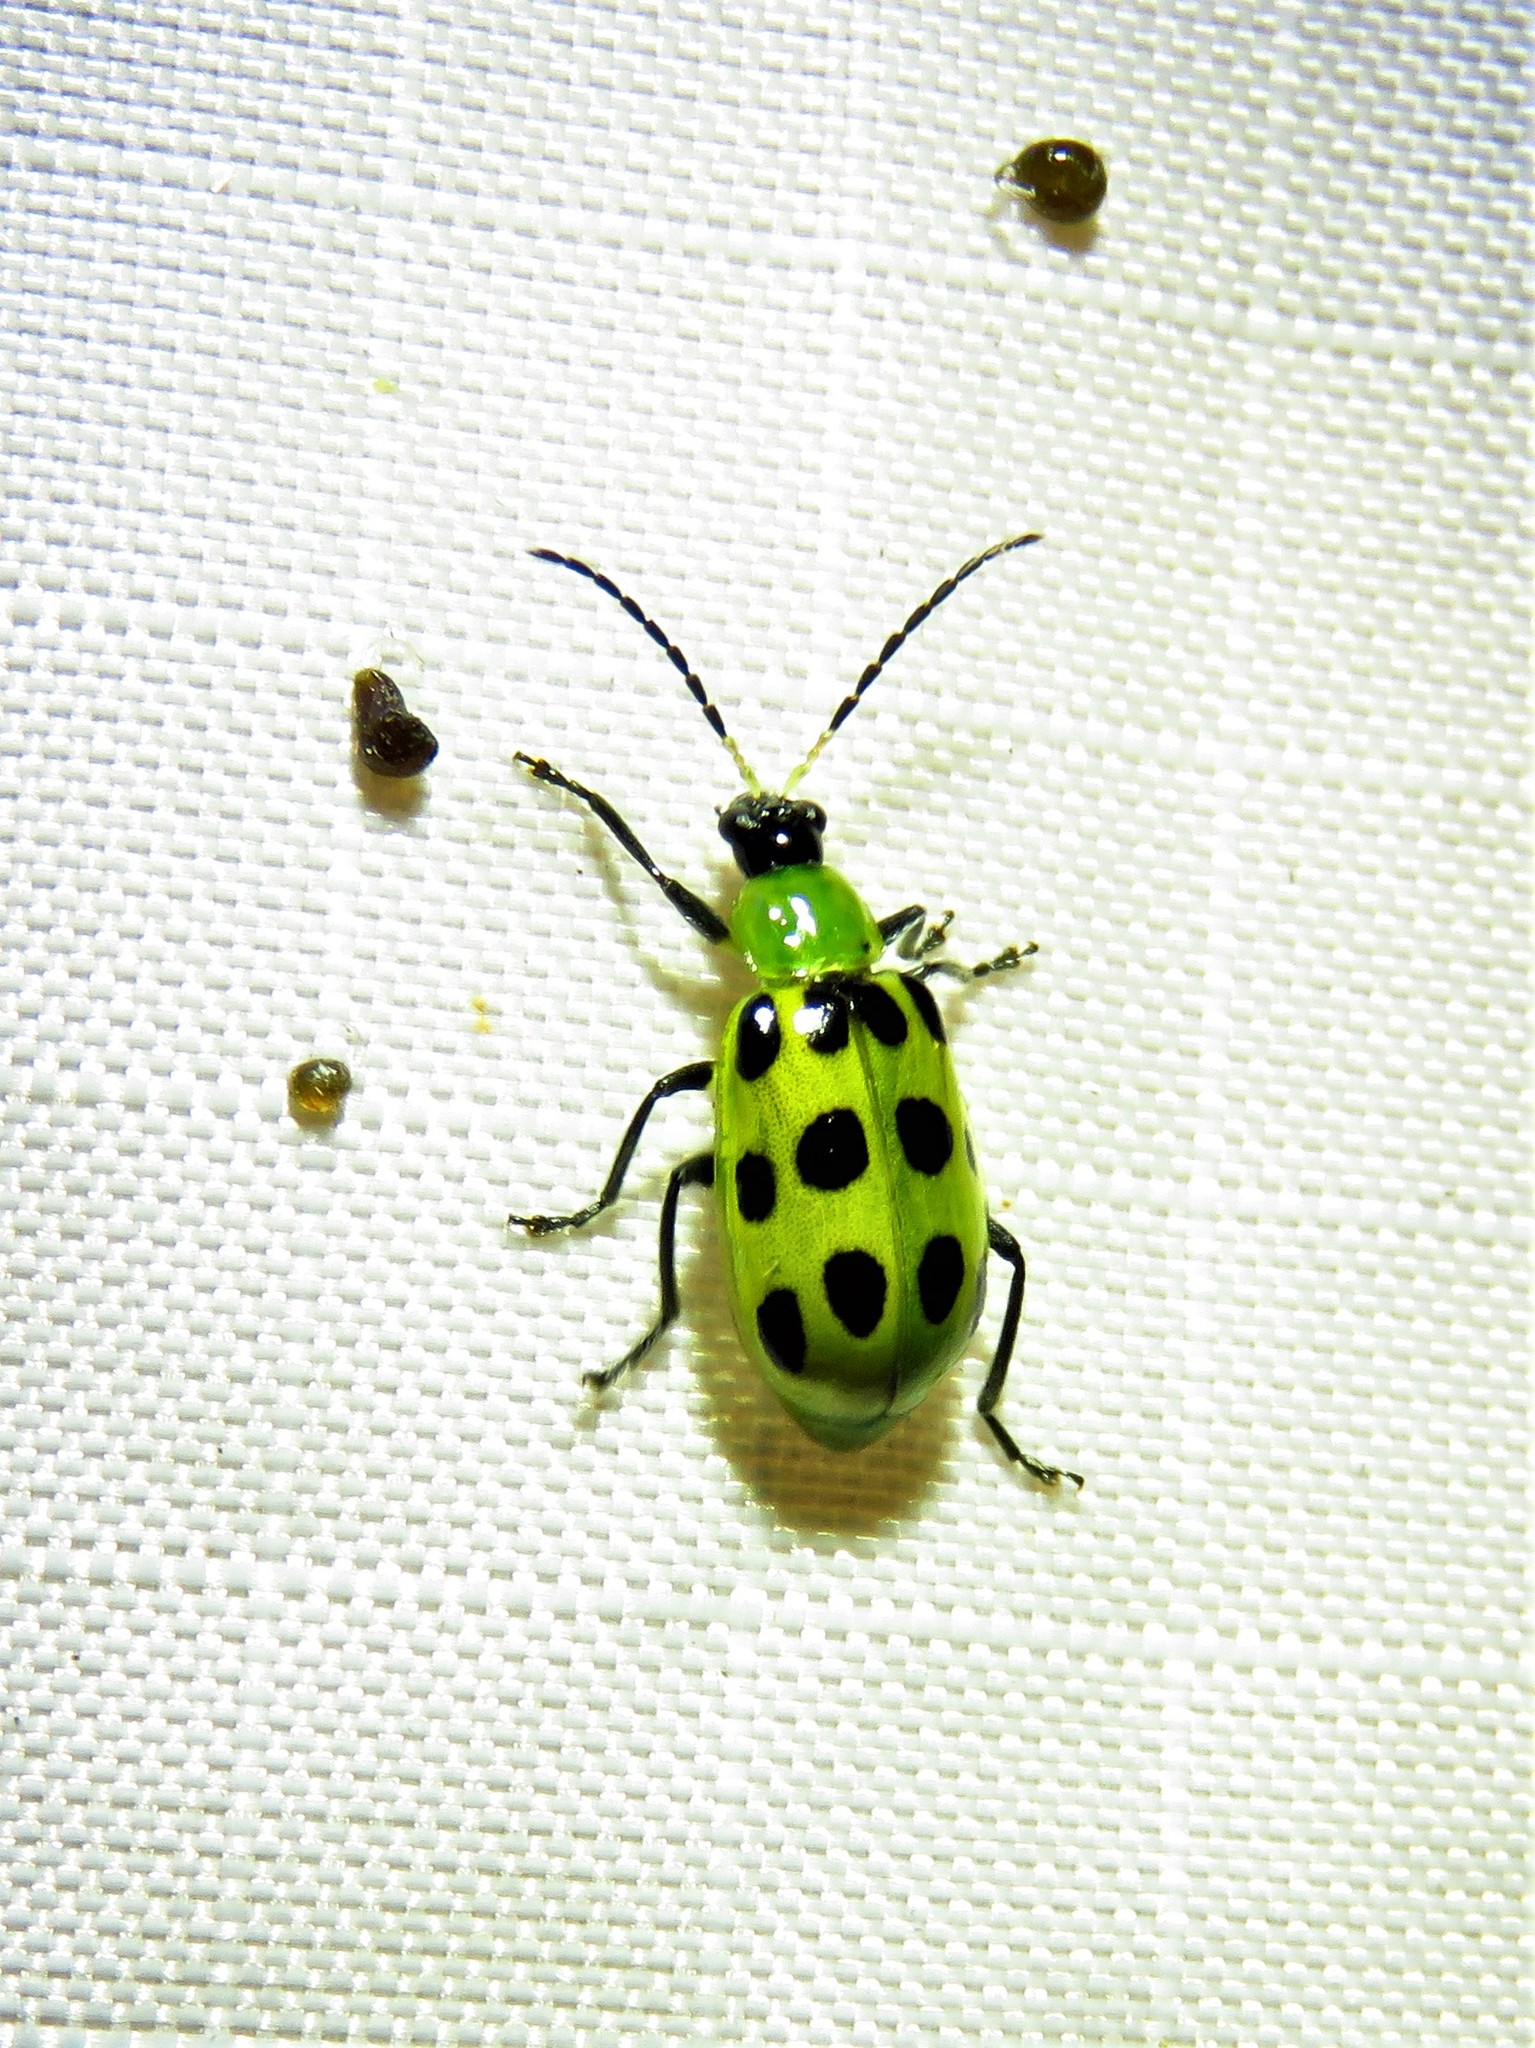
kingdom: Animalia
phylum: Arthropoda
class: Insecta
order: Coleoptera
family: Chrysomelidae
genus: Diabrotica
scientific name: Diabrotica undecimpunctata
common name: Spotted cucumber beetle
